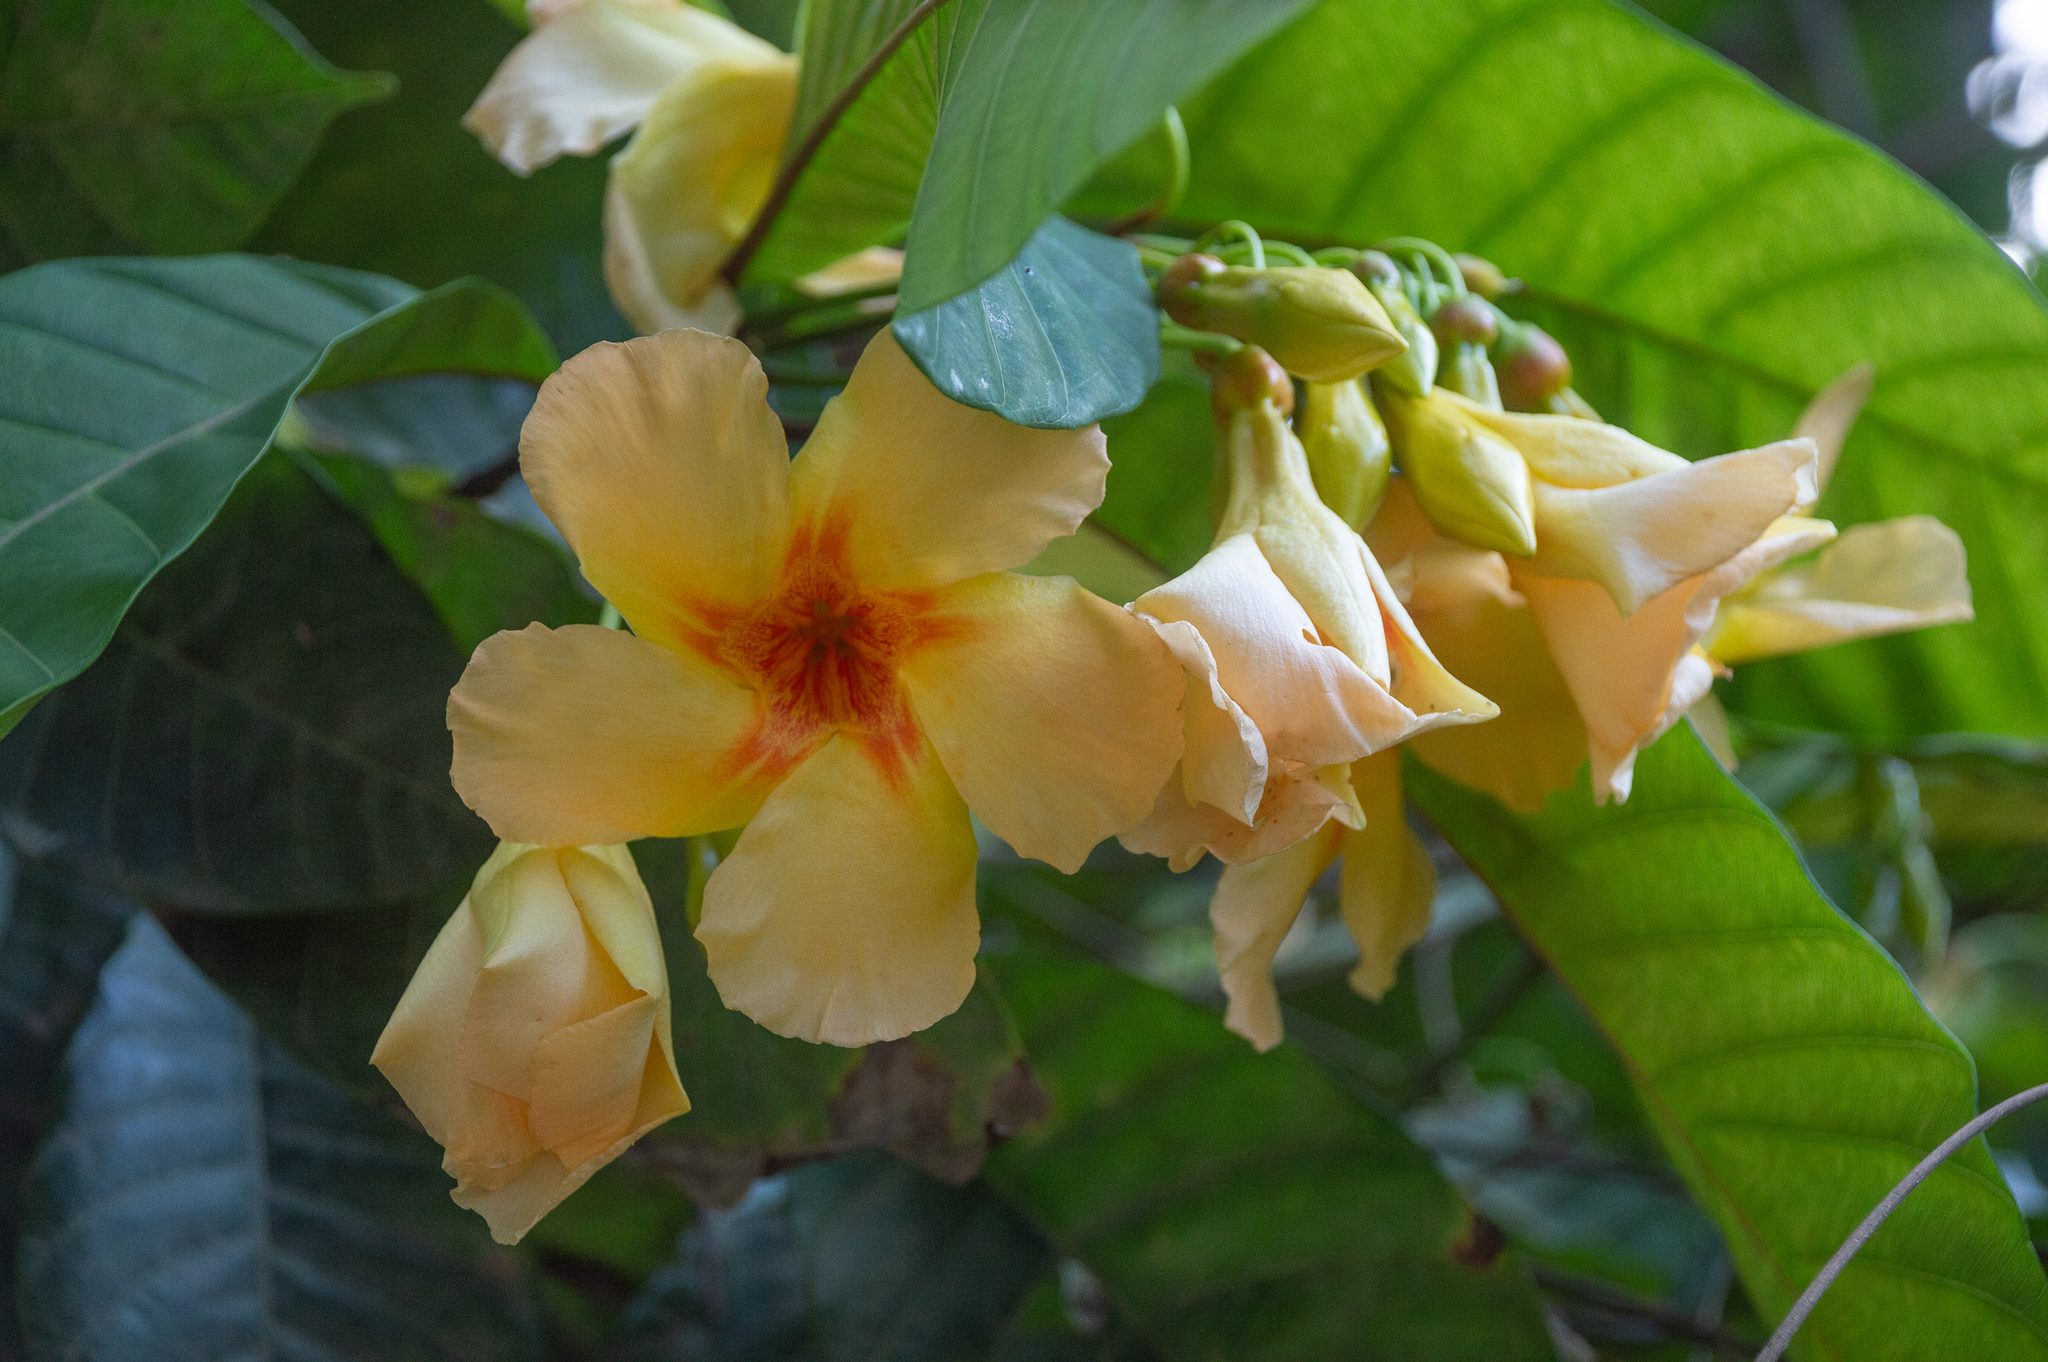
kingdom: Plantae
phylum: Tracheophyta
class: Magnoliopsida
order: Gentianales
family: Apocynaceae
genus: Odontadenia
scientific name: Odontadenia semidigyna
